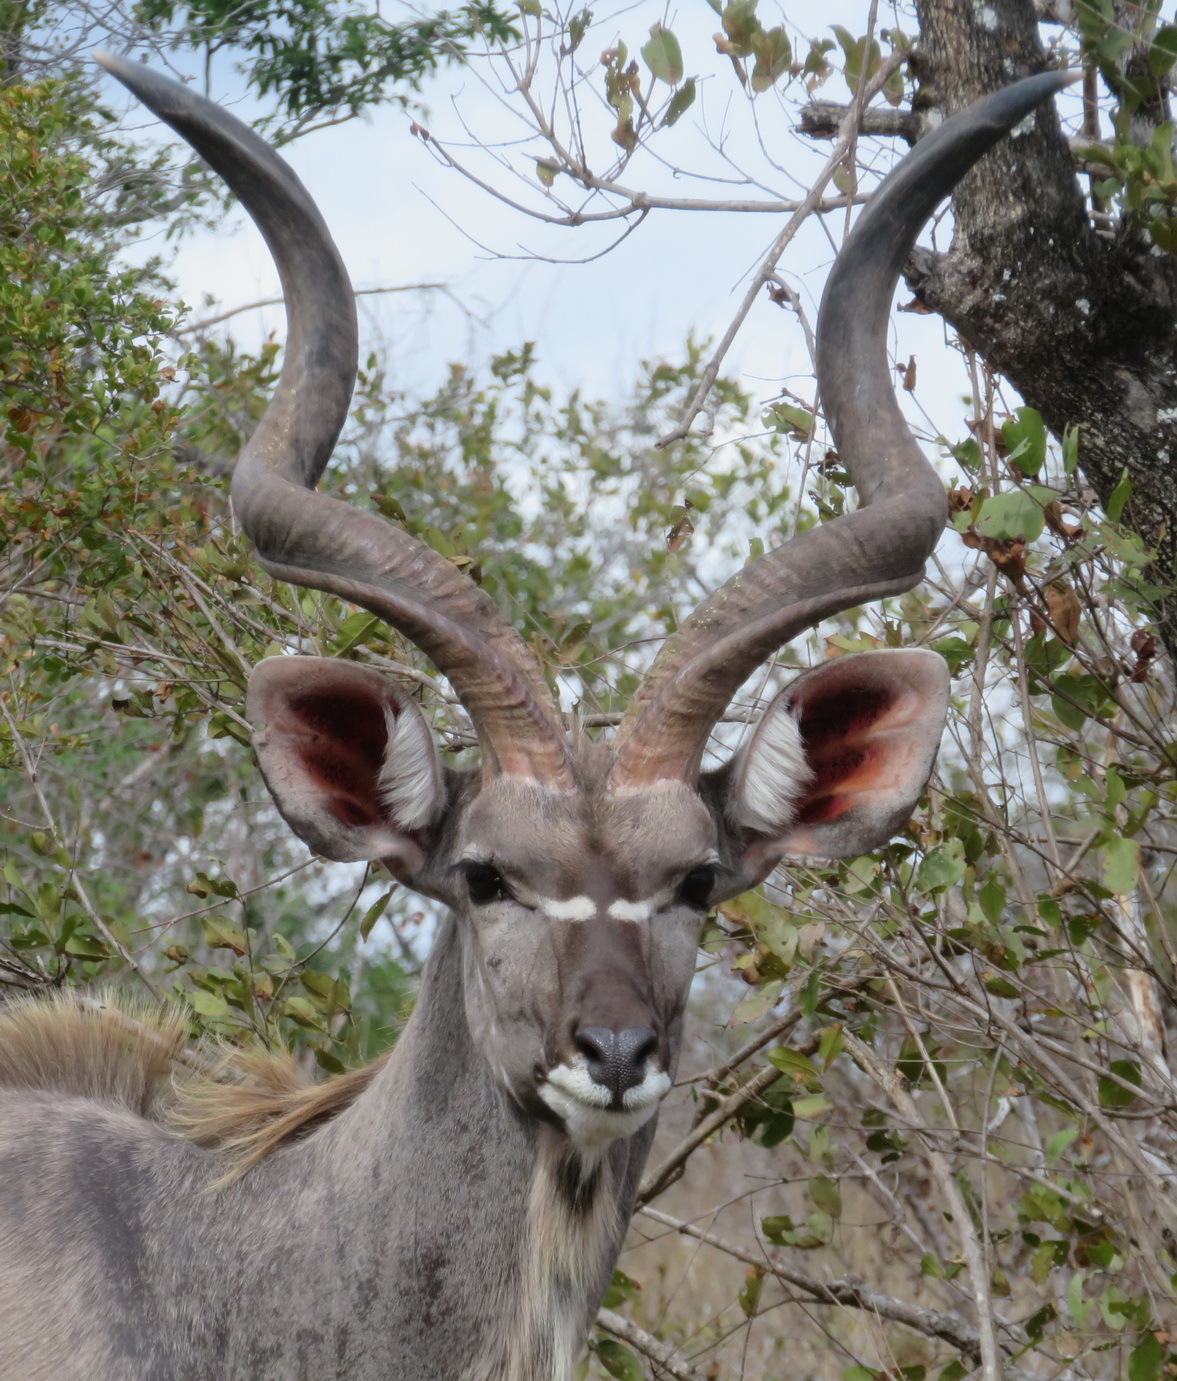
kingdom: Animalia
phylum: Chordata
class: Mammalia
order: Artiodactyla
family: Bovidae
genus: Tragelaphus
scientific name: Tragelaphus strepsiceros
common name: Greater kudu
